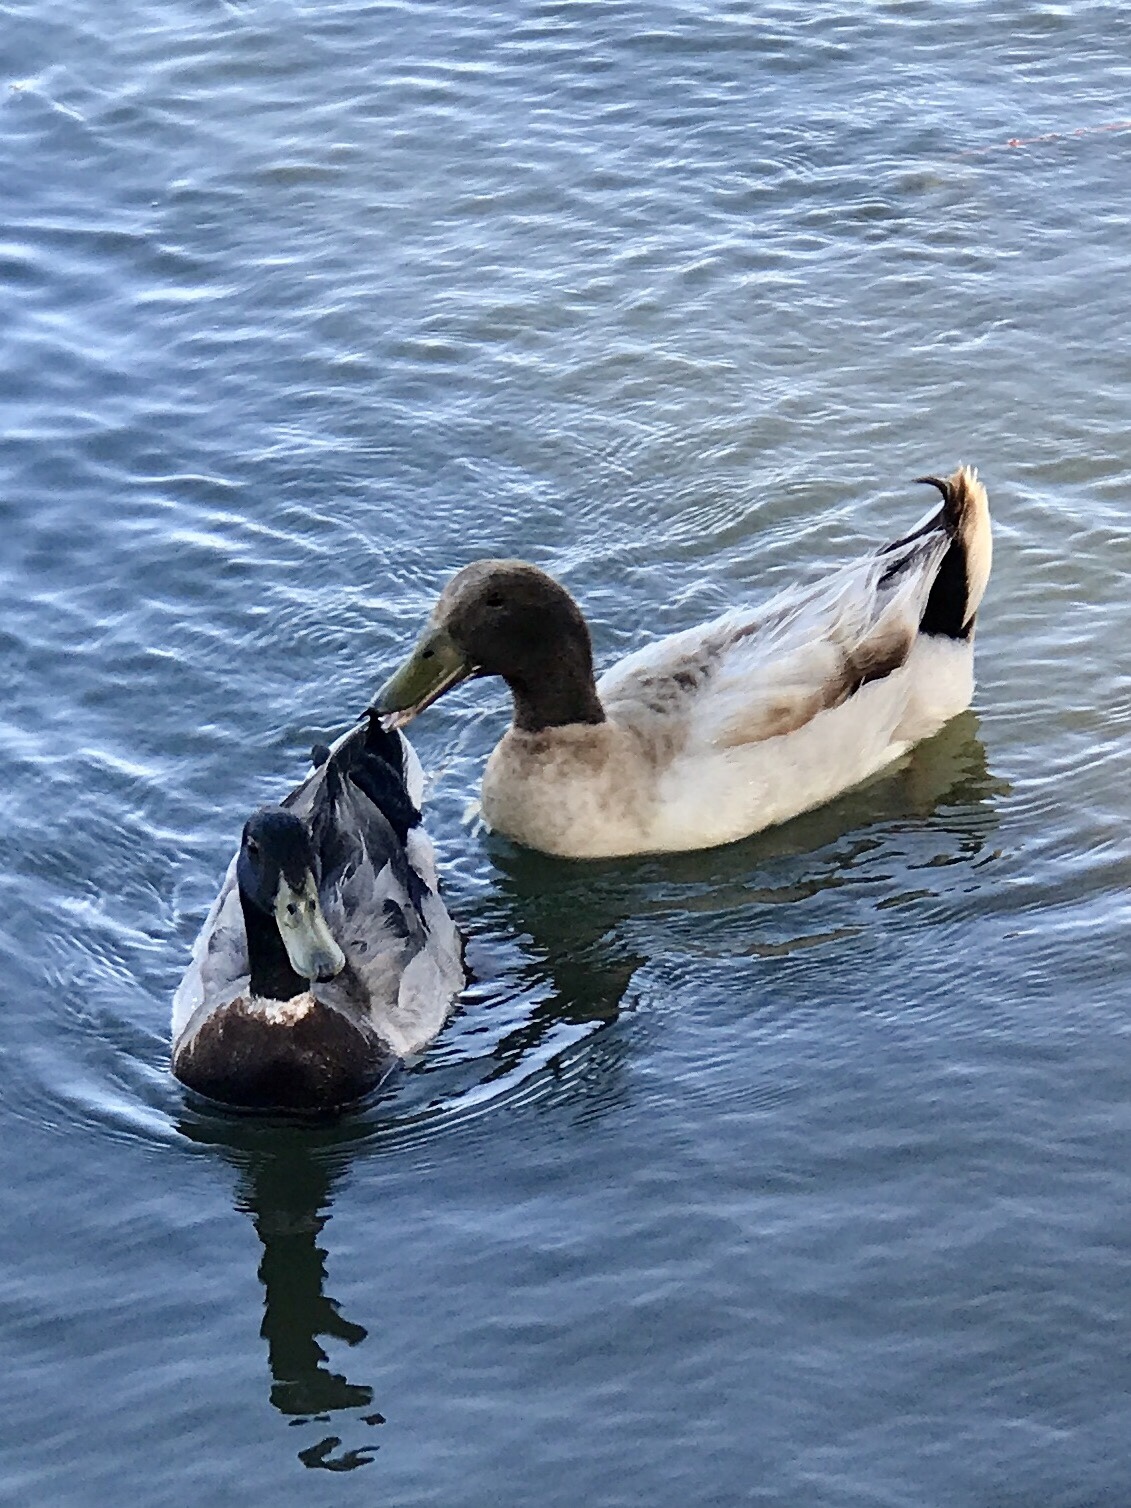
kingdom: Animalia
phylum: Chordata
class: Aves
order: Anseriformes
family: Anatidae
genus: Anas
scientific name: Anas platyrhynchos
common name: Mallard
